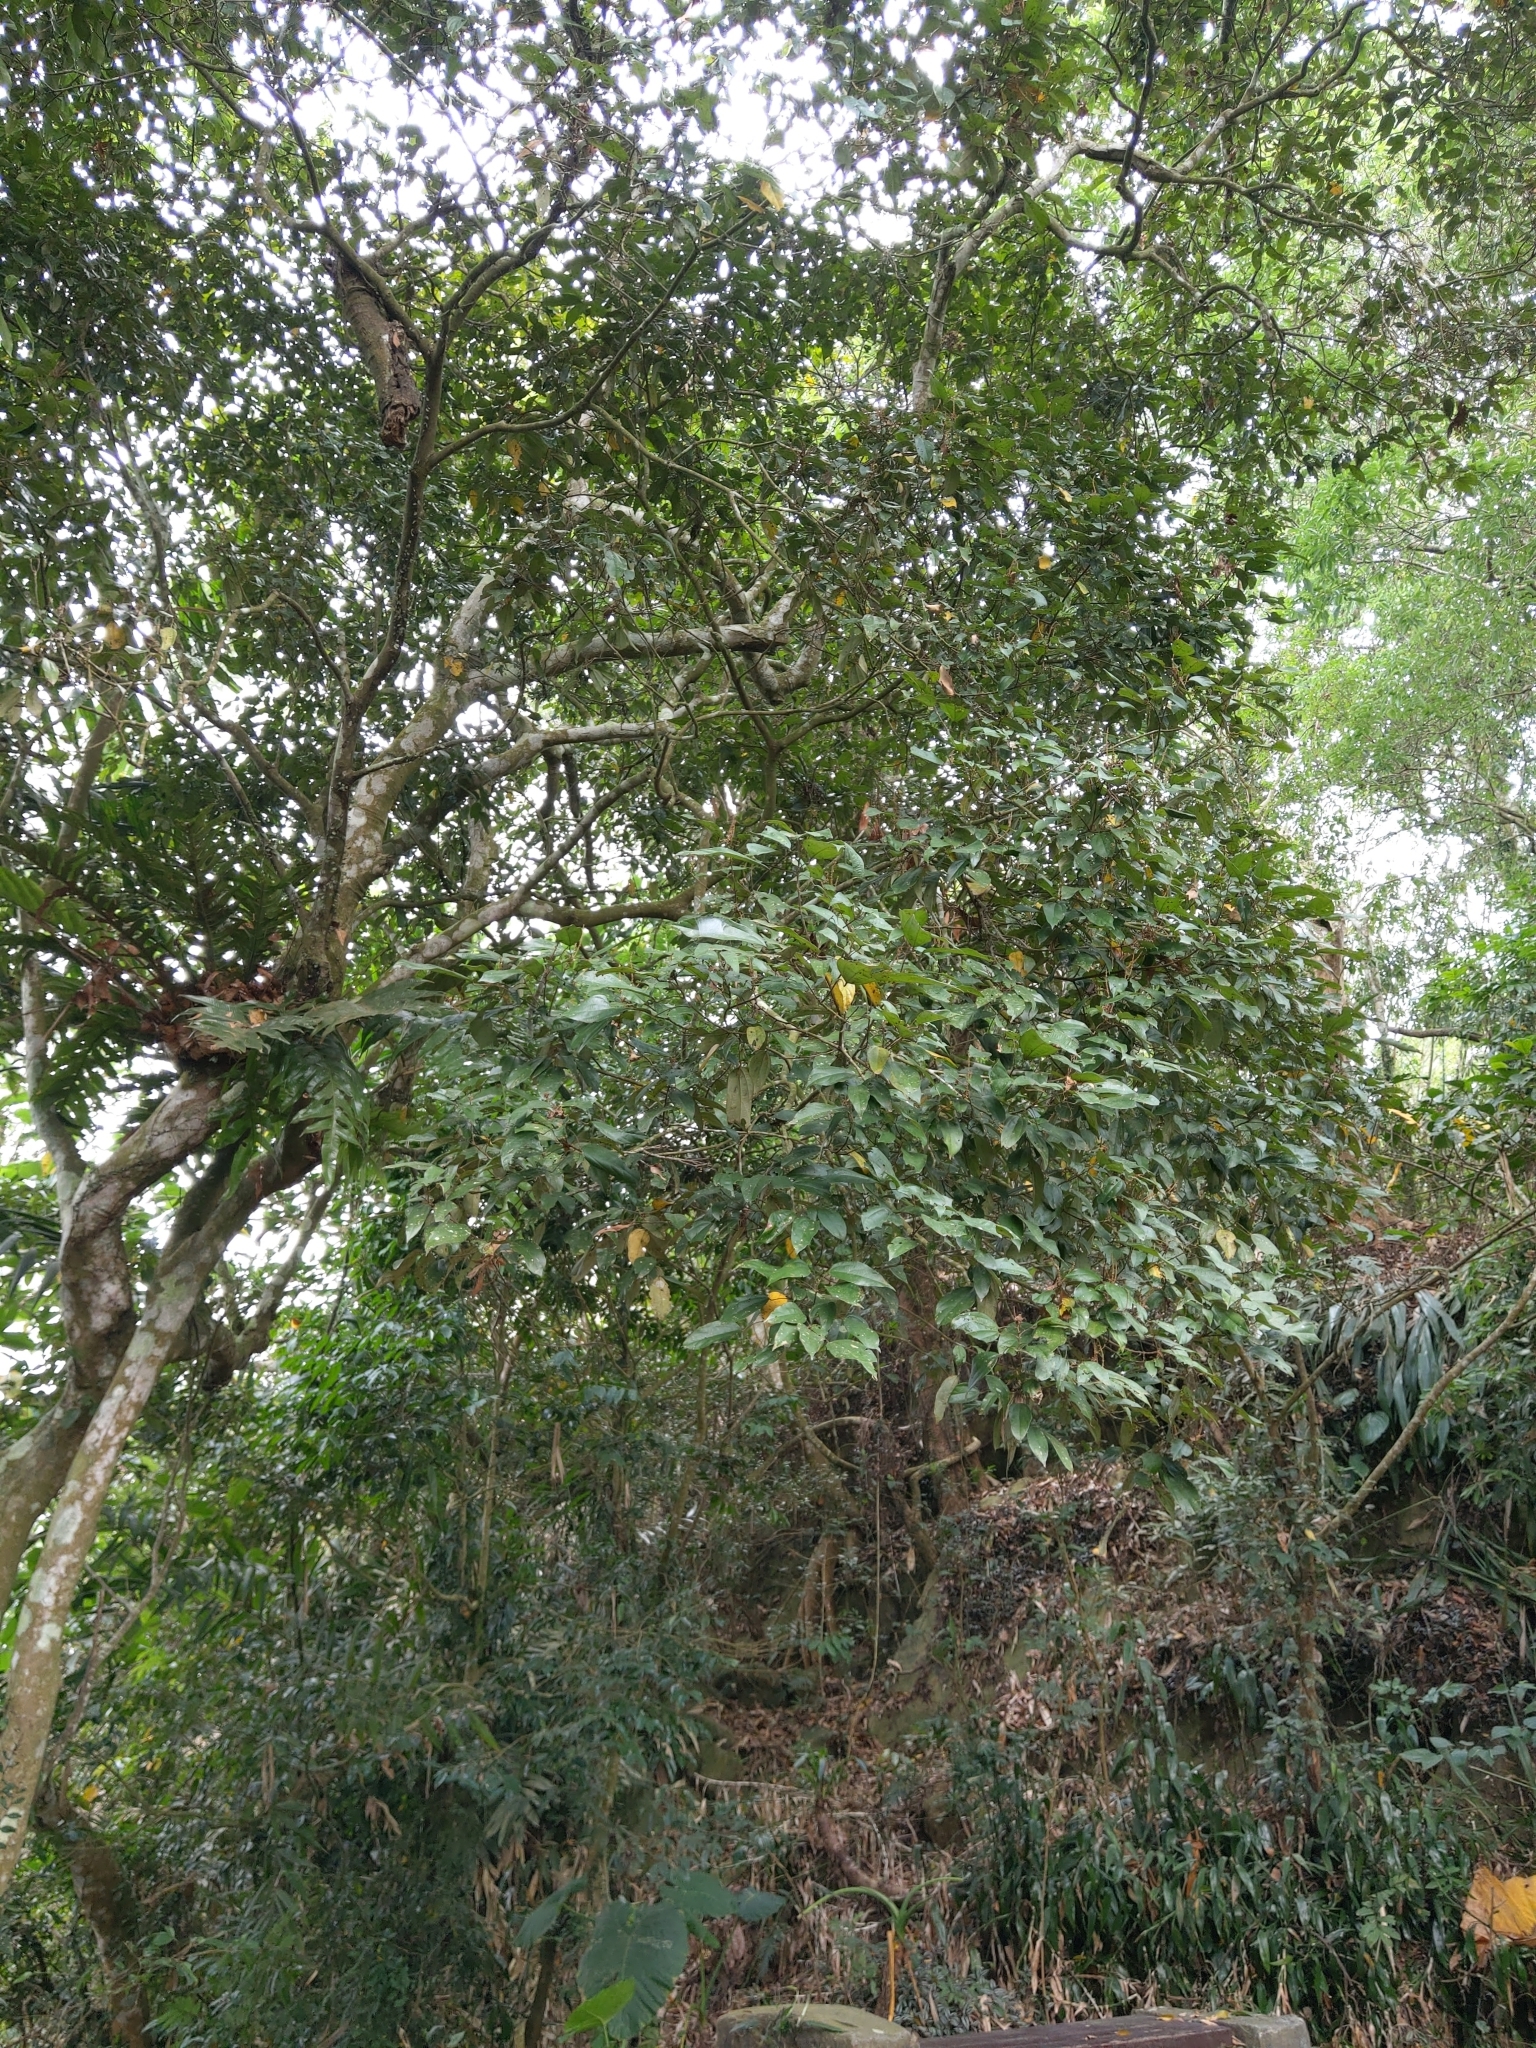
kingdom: Plantae
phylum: Tracheophyta
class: Magnoliopsida
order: Malpighiales
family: Euphorbiaceae
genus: Mallotus
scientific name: Mallotus philippensis
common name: Kamala tree
